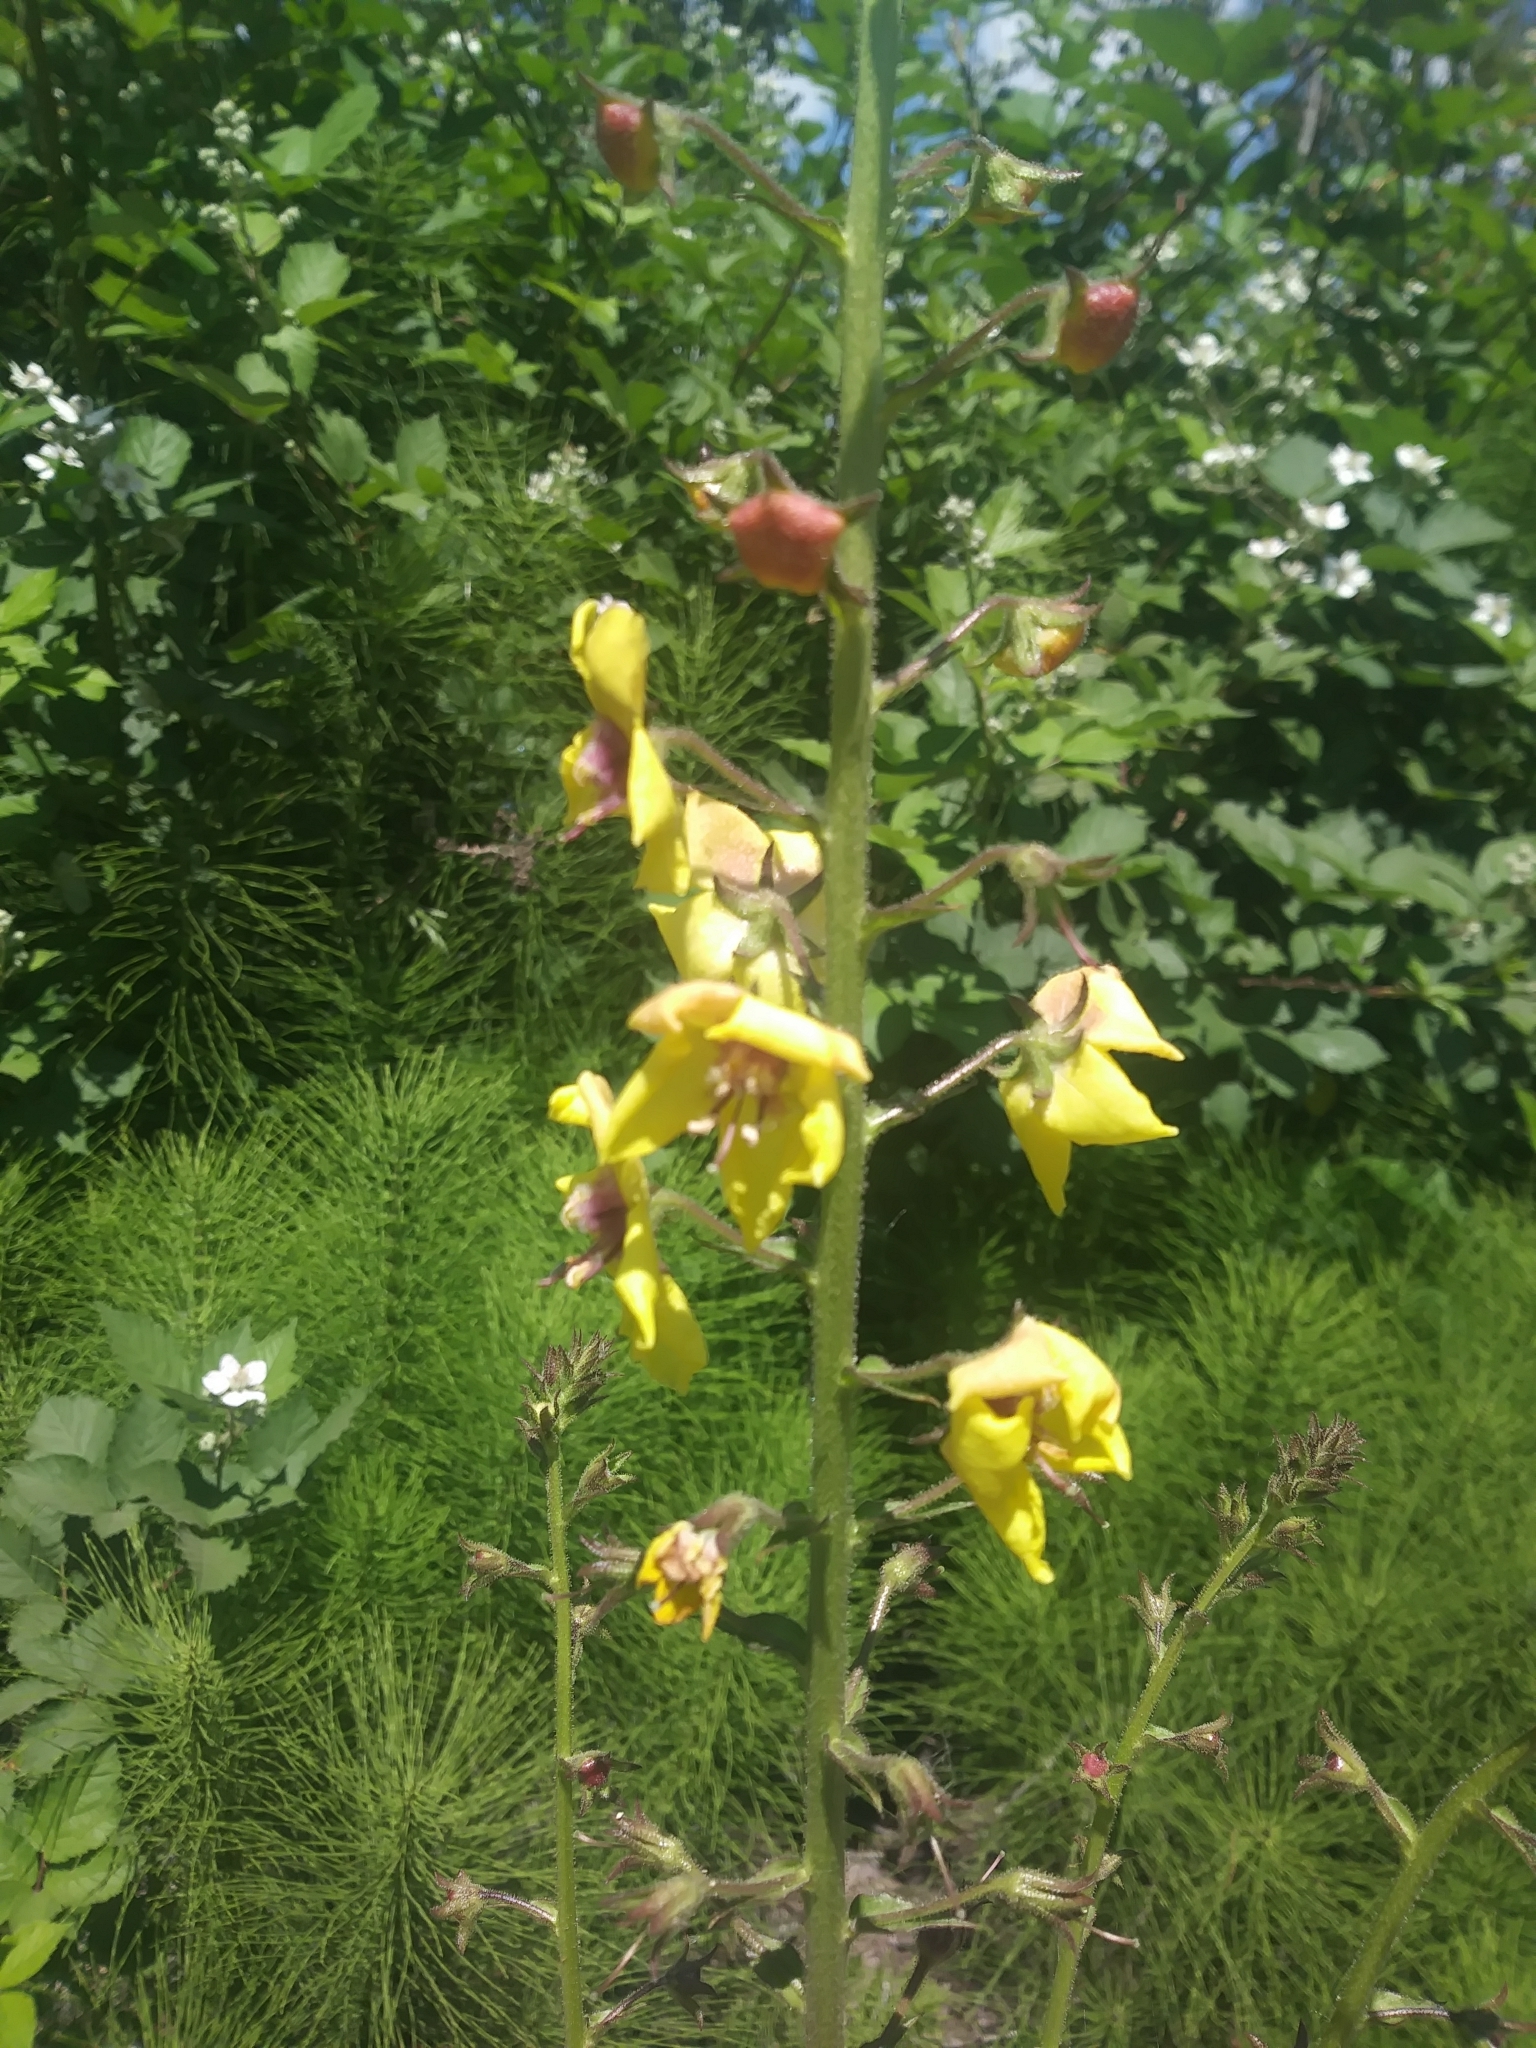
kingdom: Plantae
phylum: Tracheophyta
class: Magnoliopsida
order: Lamiales
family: Scrophulariaceae
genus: Verbascum
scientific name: Verbascum blattaria
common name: Moth mullein
